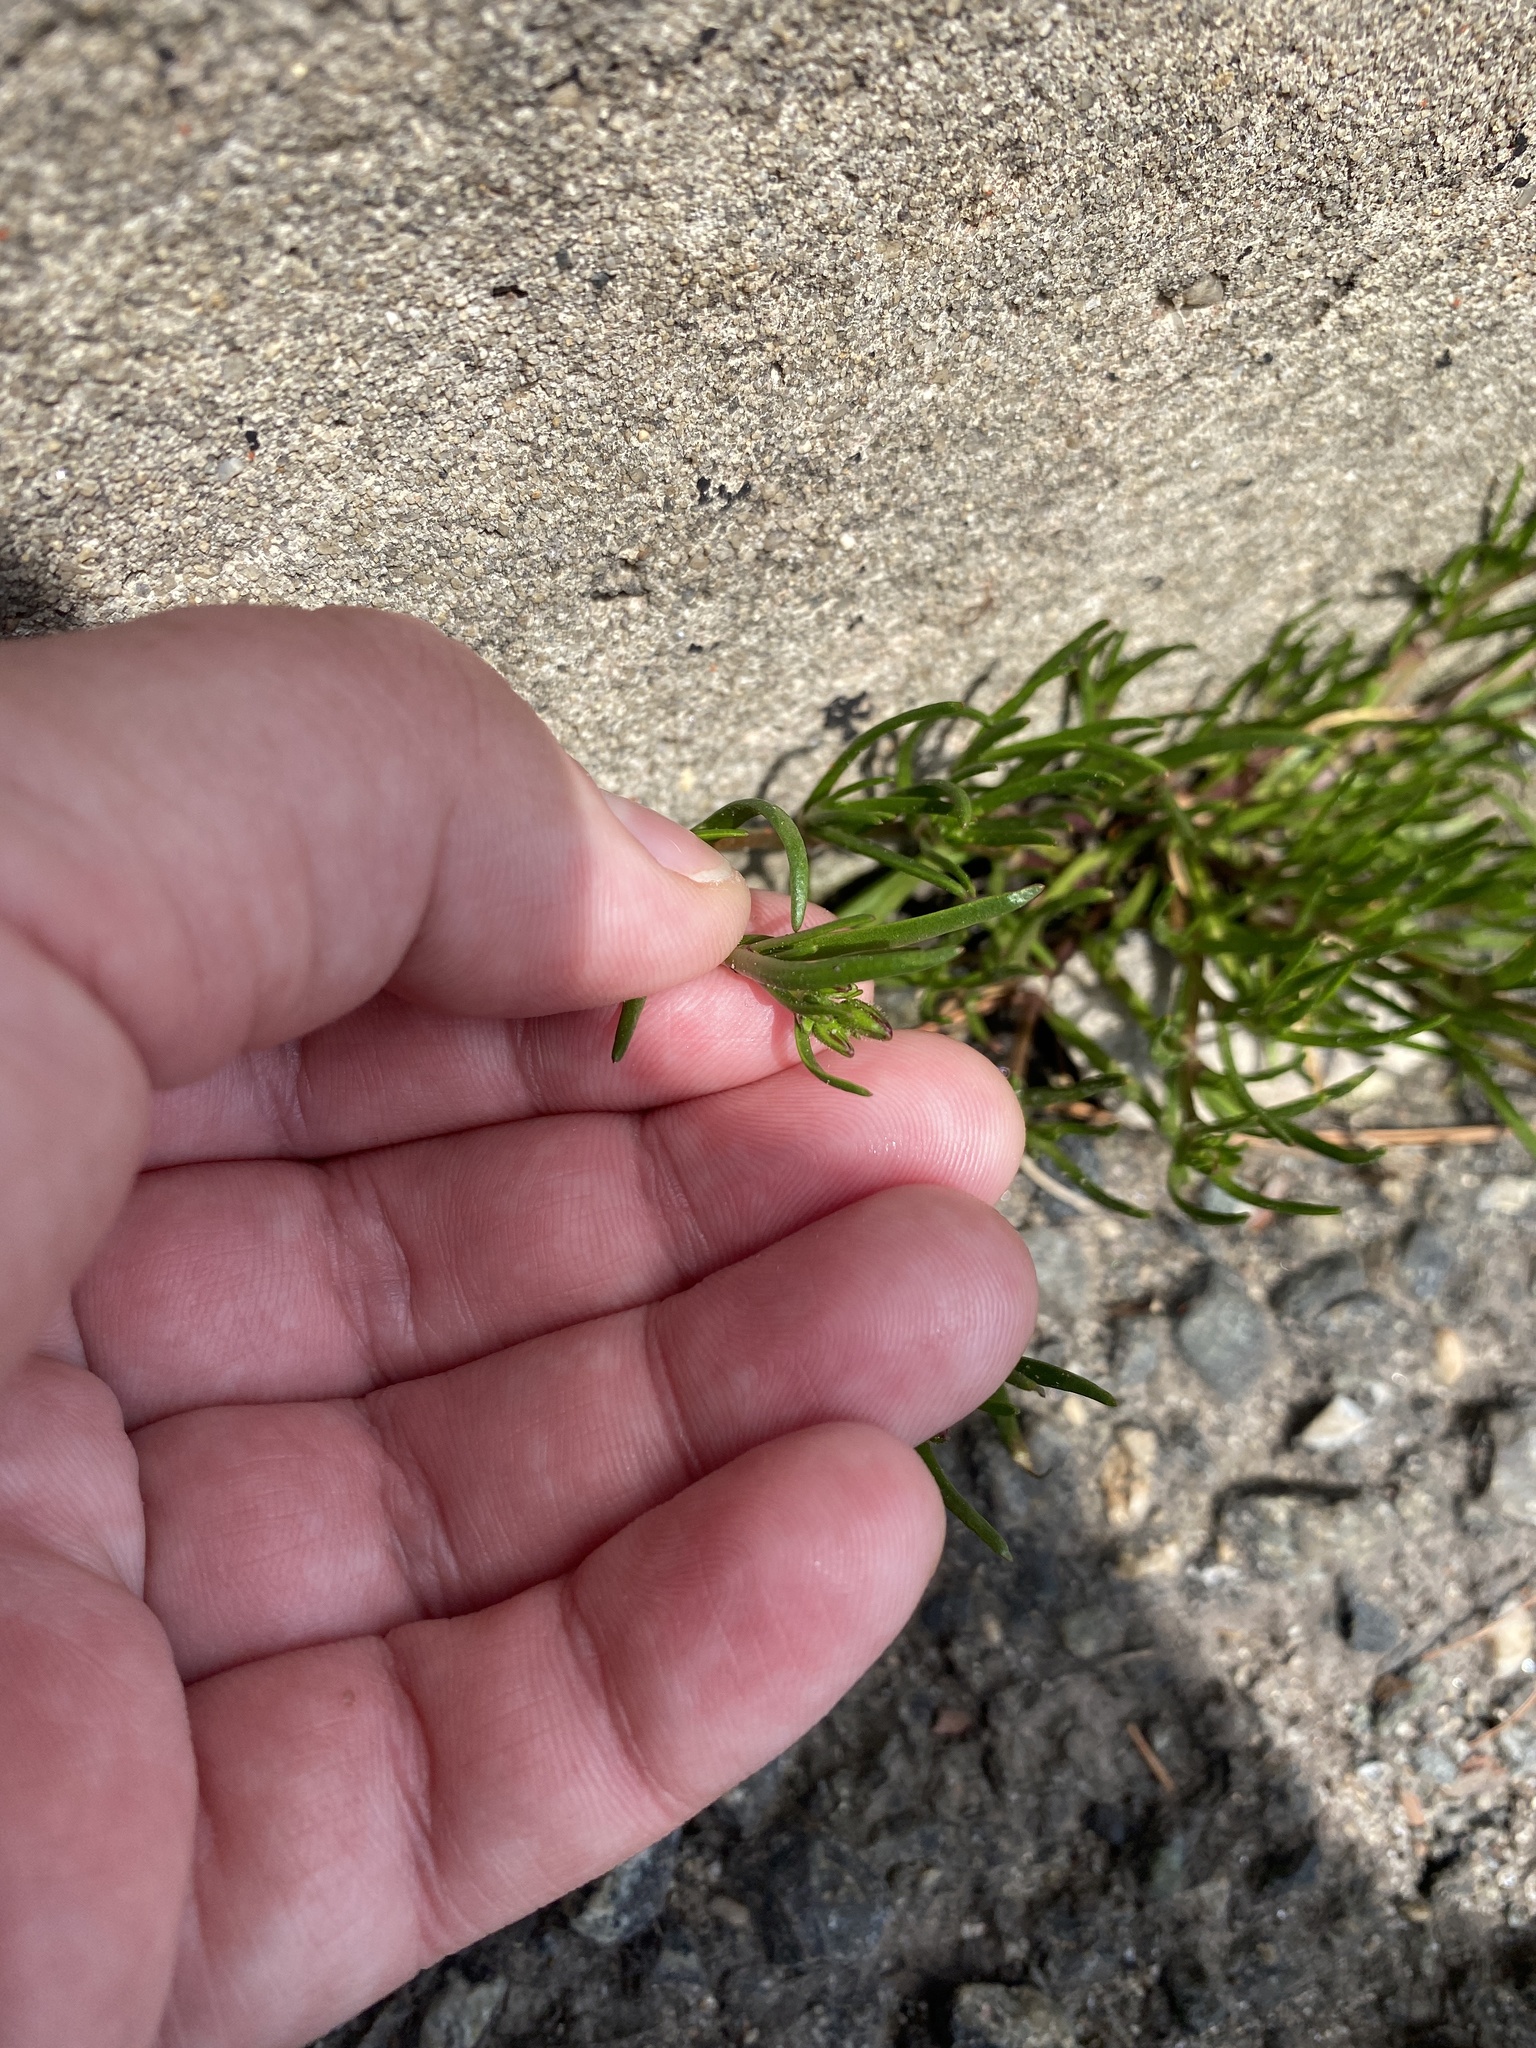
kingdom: Plantae
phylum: Tracheophyta
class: Magnoliopsida
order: Caryophyllales
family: Caryophyllaceae
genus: Spergularia
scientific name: Spergularia rubra
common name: Red sand-spurrey
